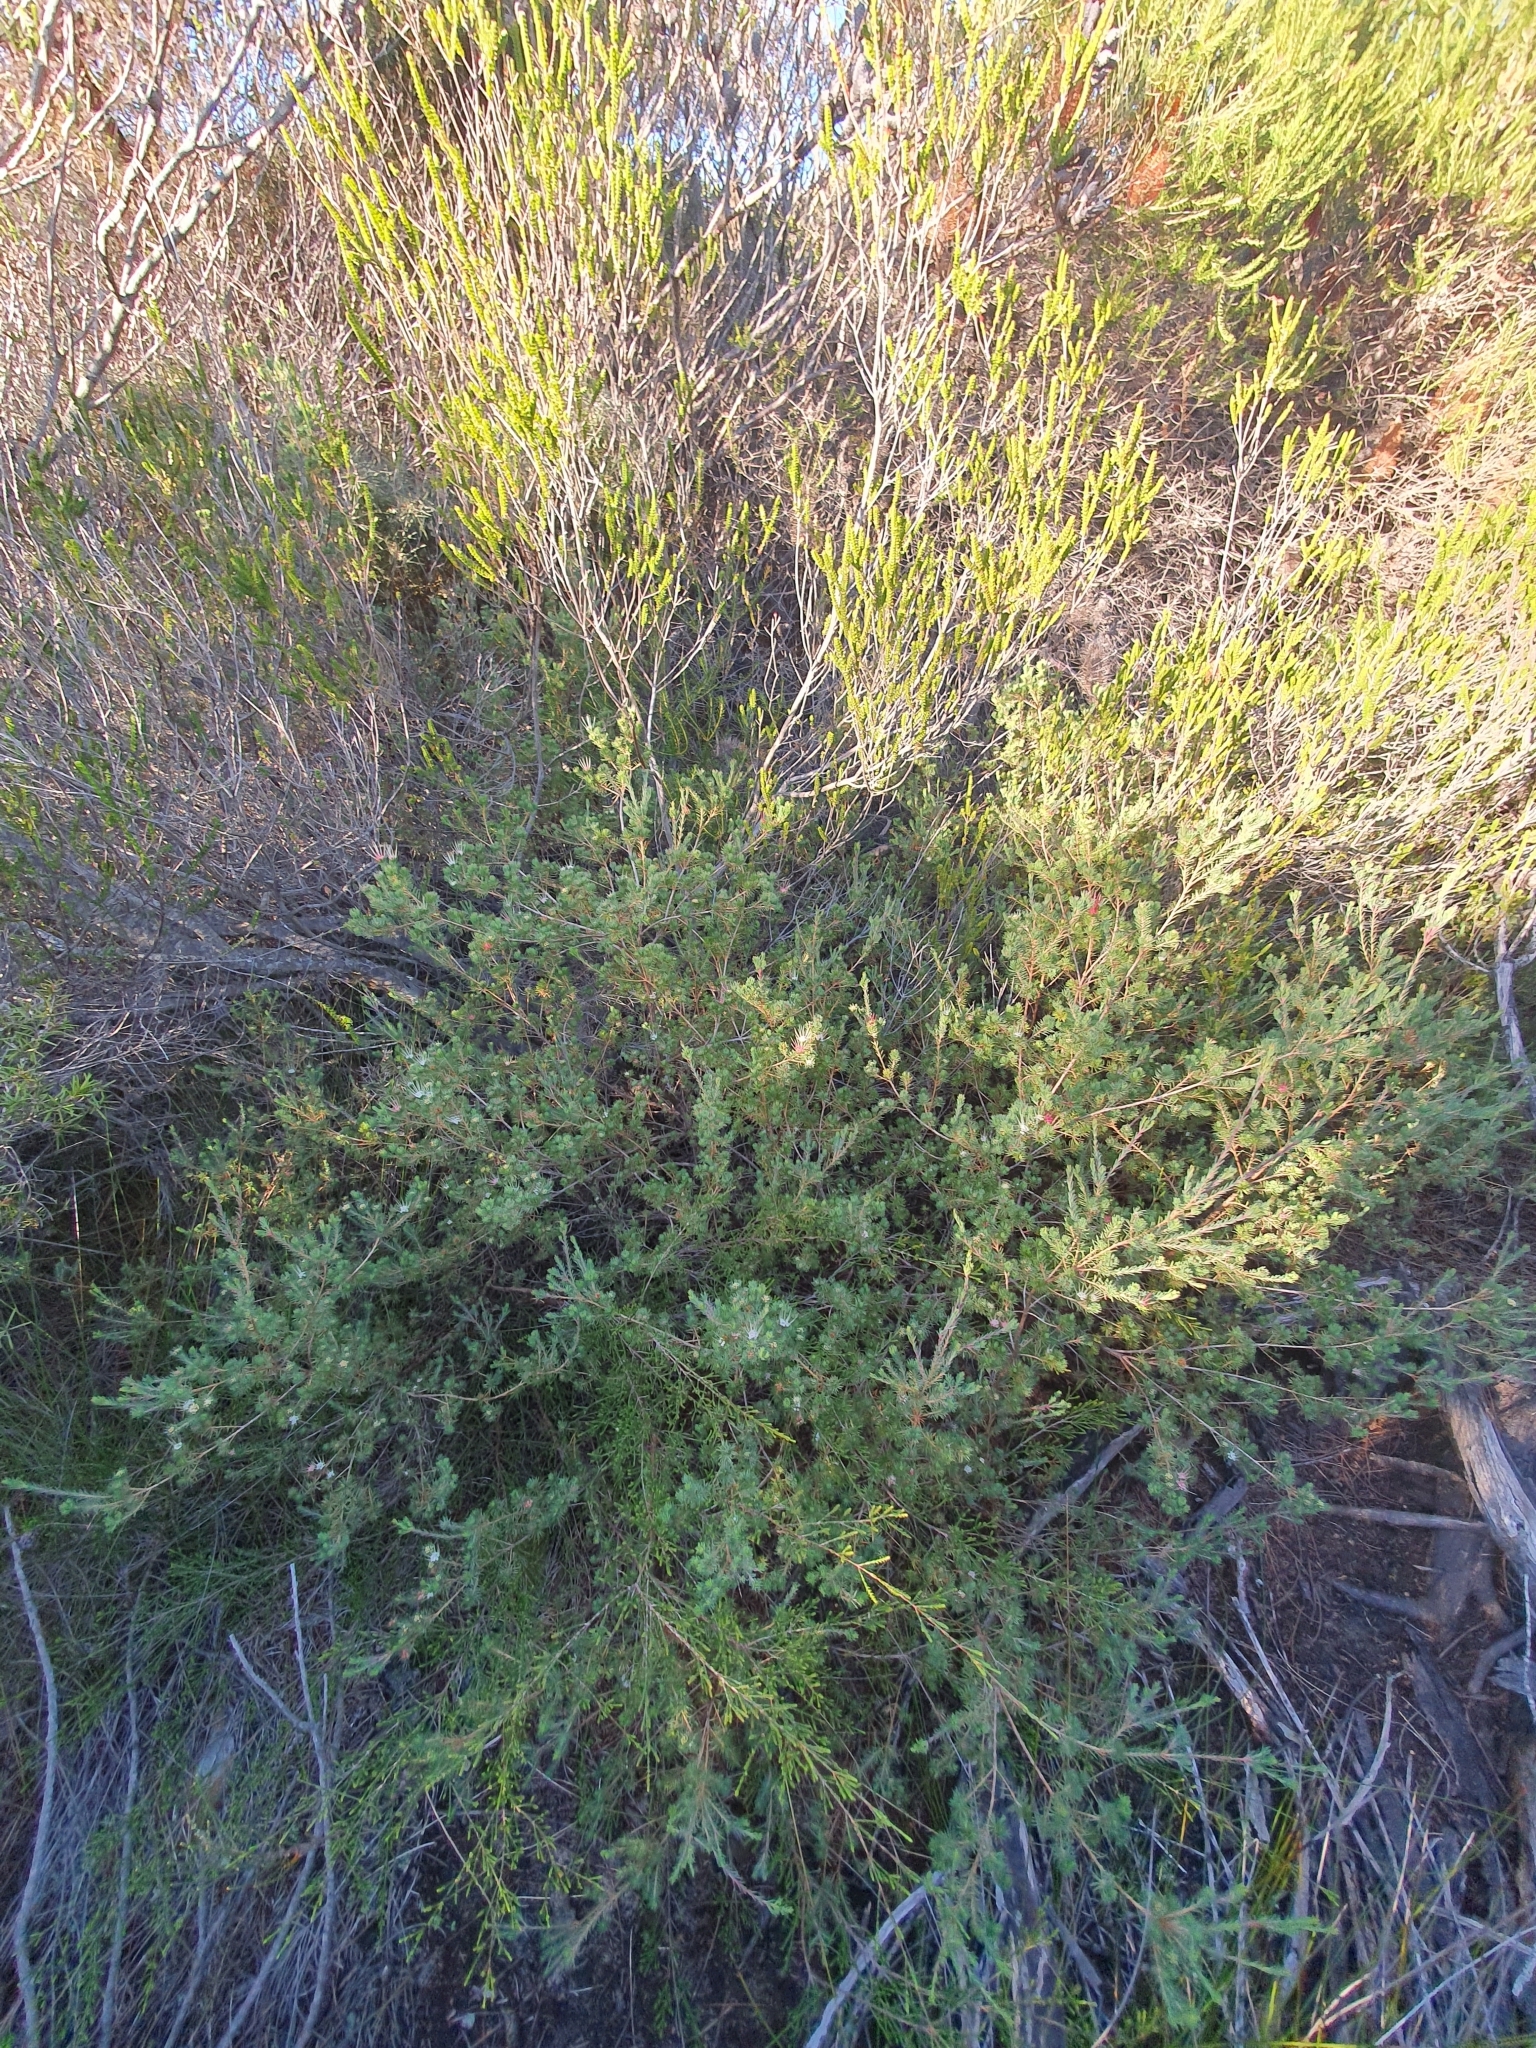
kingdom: Plantae
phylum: Tracheophyta
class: Magnoliopsida
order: Myrtales
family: Myrtaceae
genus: Darwinia
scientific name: Darwinia fascicularis
